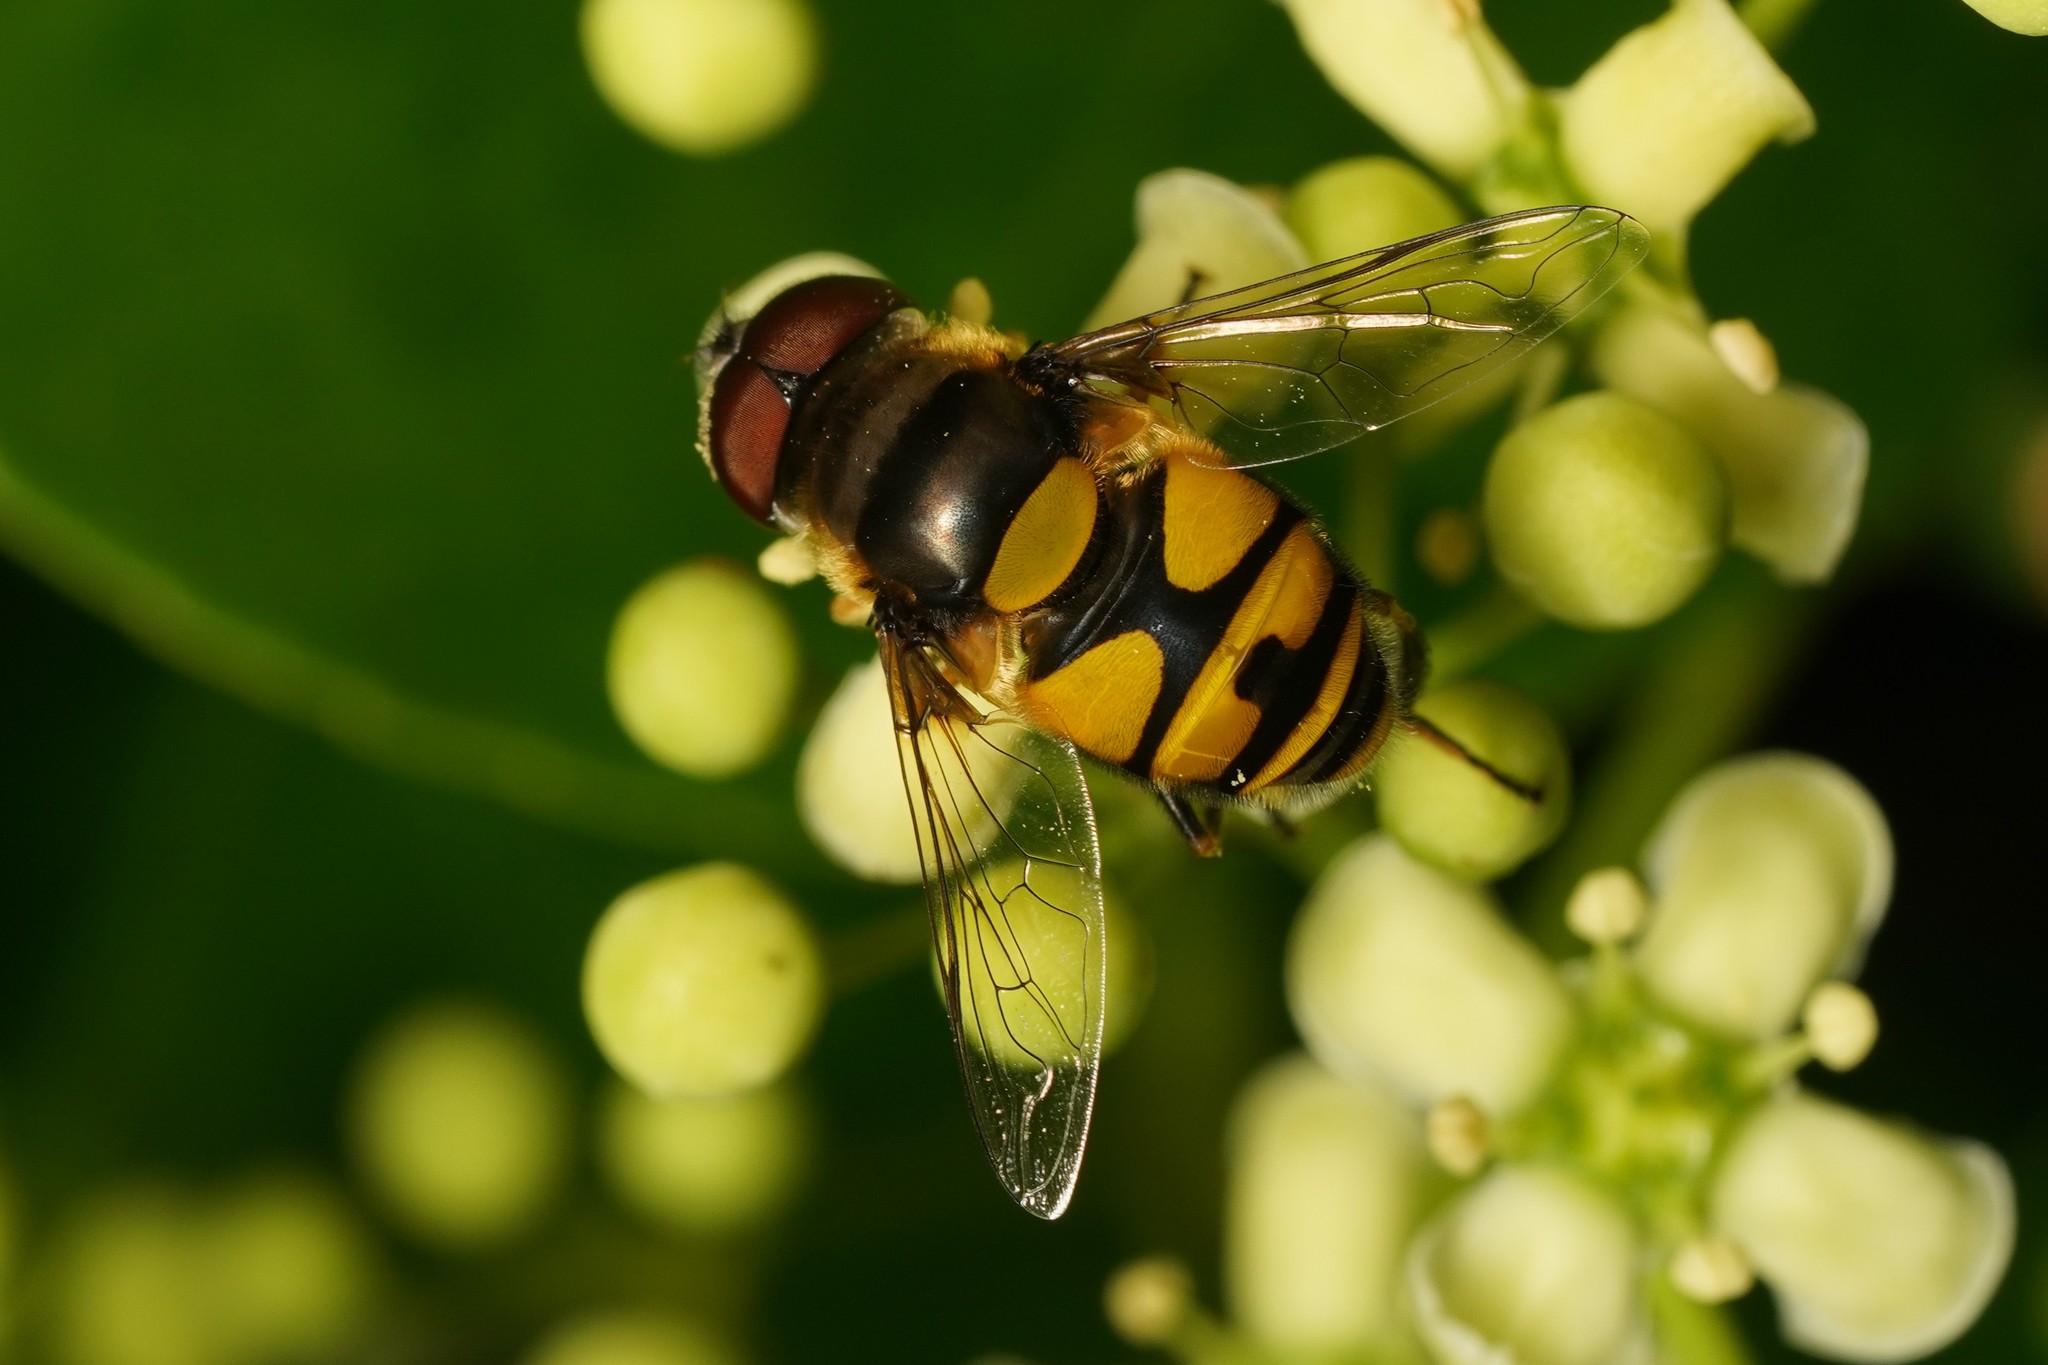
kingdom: Animalia
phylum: Arthropoda
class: Insecta
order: Diptera
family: Syrphidae
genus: Eristalis
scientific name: Eristalis transversa
